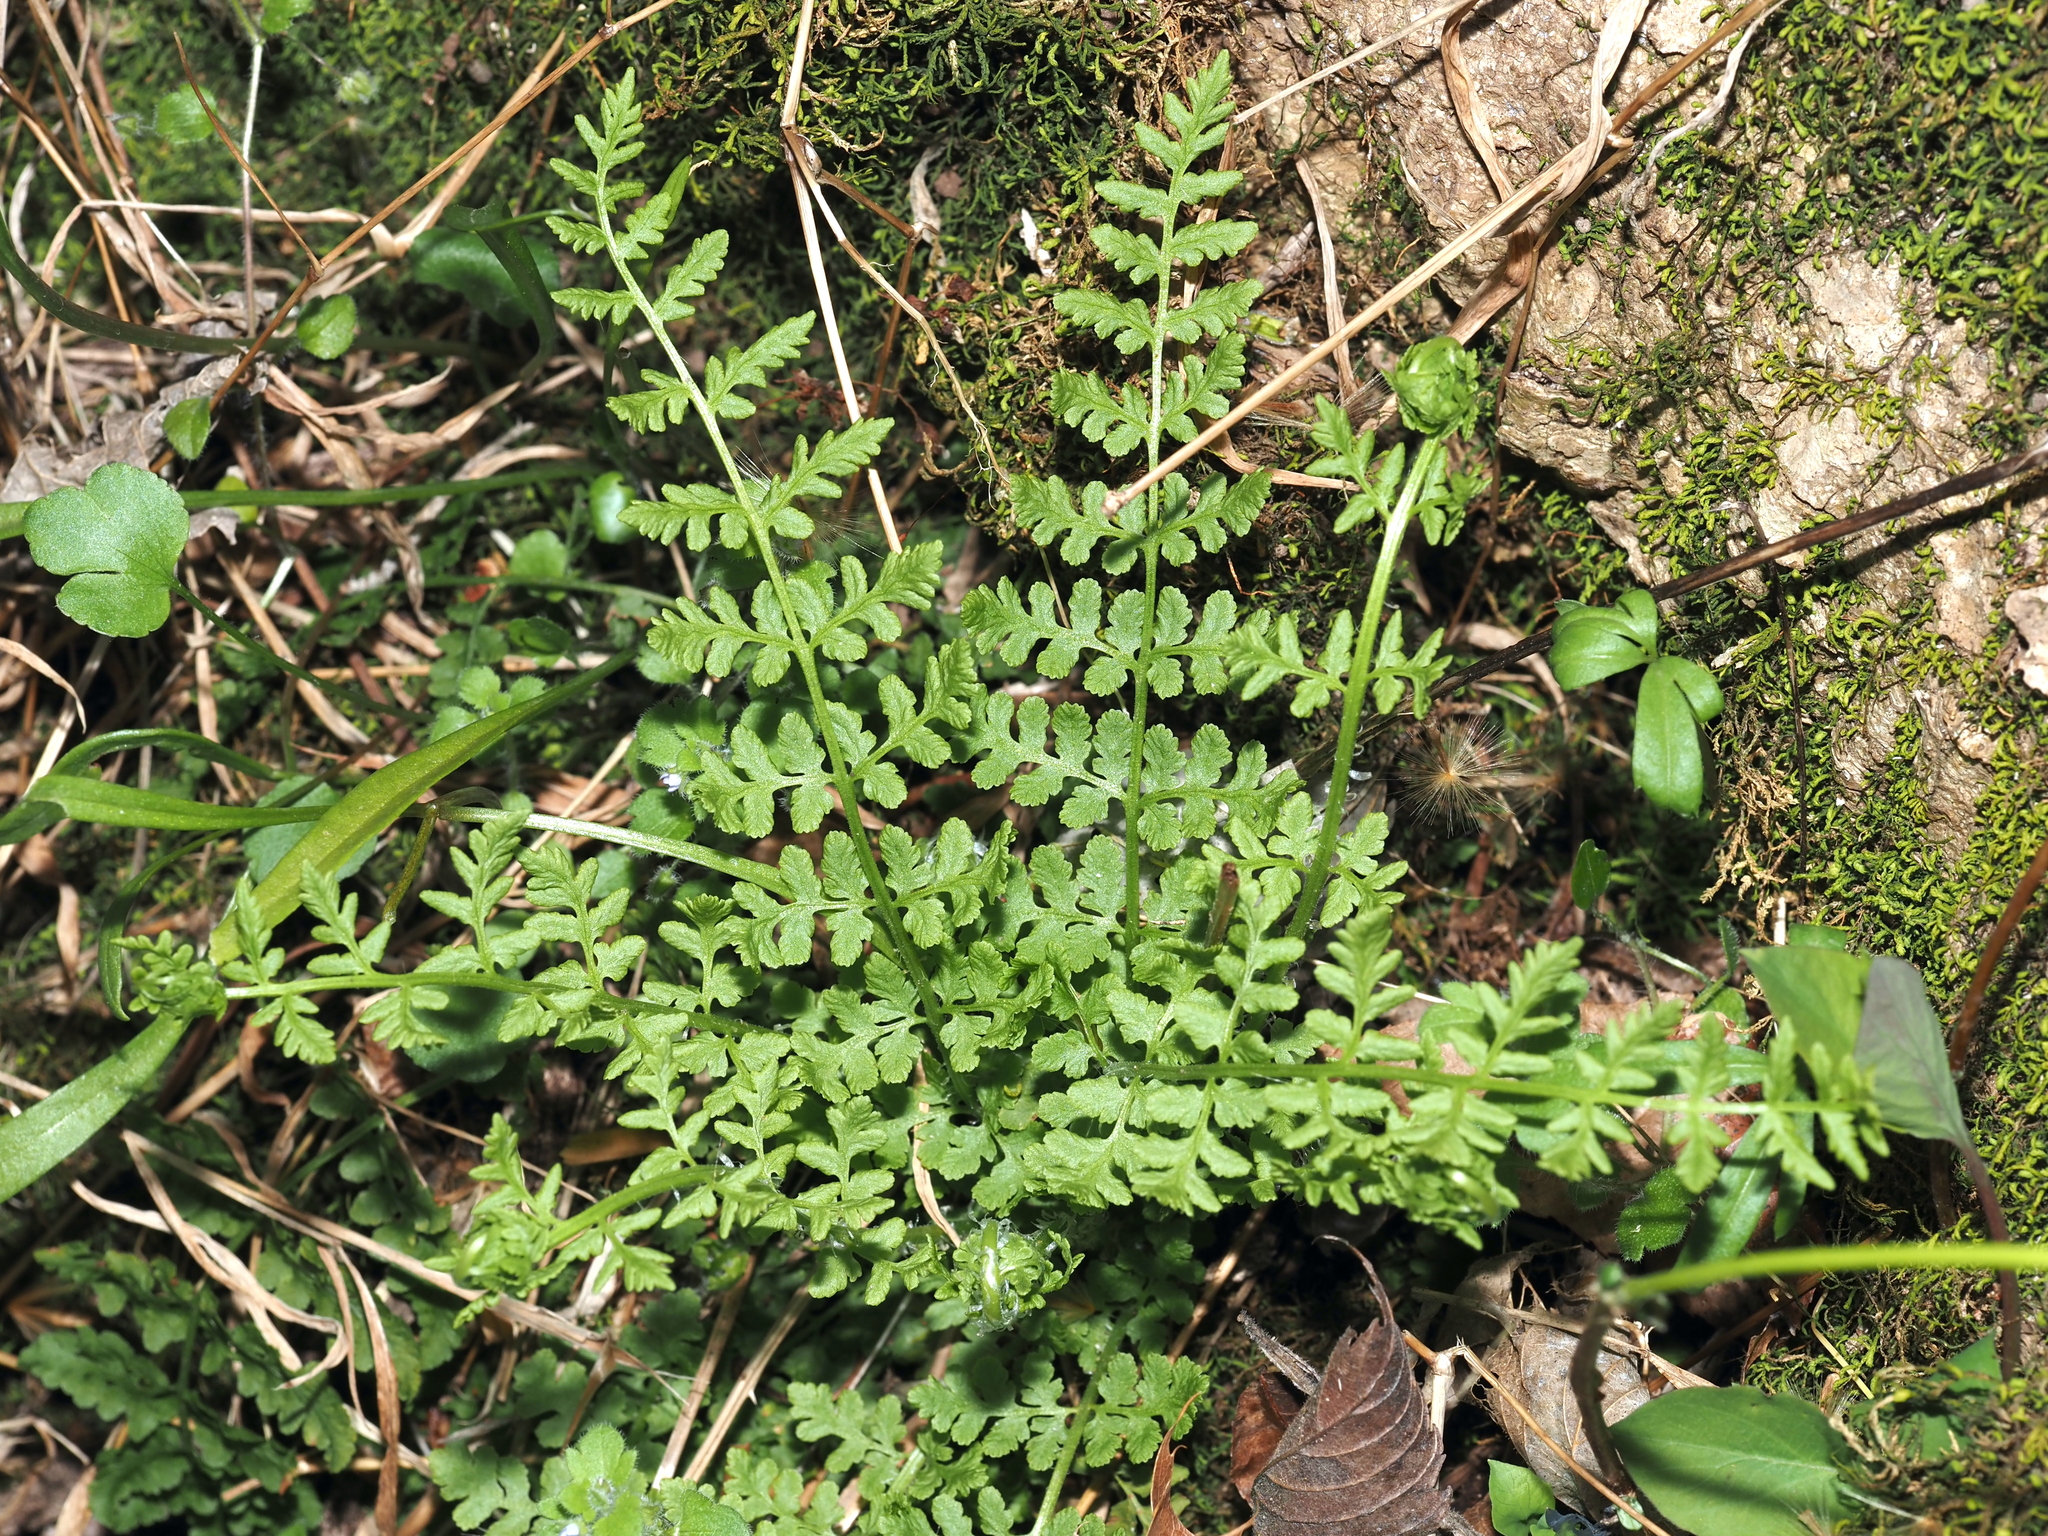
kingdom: Plantae
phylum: Tracheophyta
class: Polypodiopsida
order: Polypodiales
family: Woodsiaceae
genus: Physematium
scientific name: Physematium obtusum
